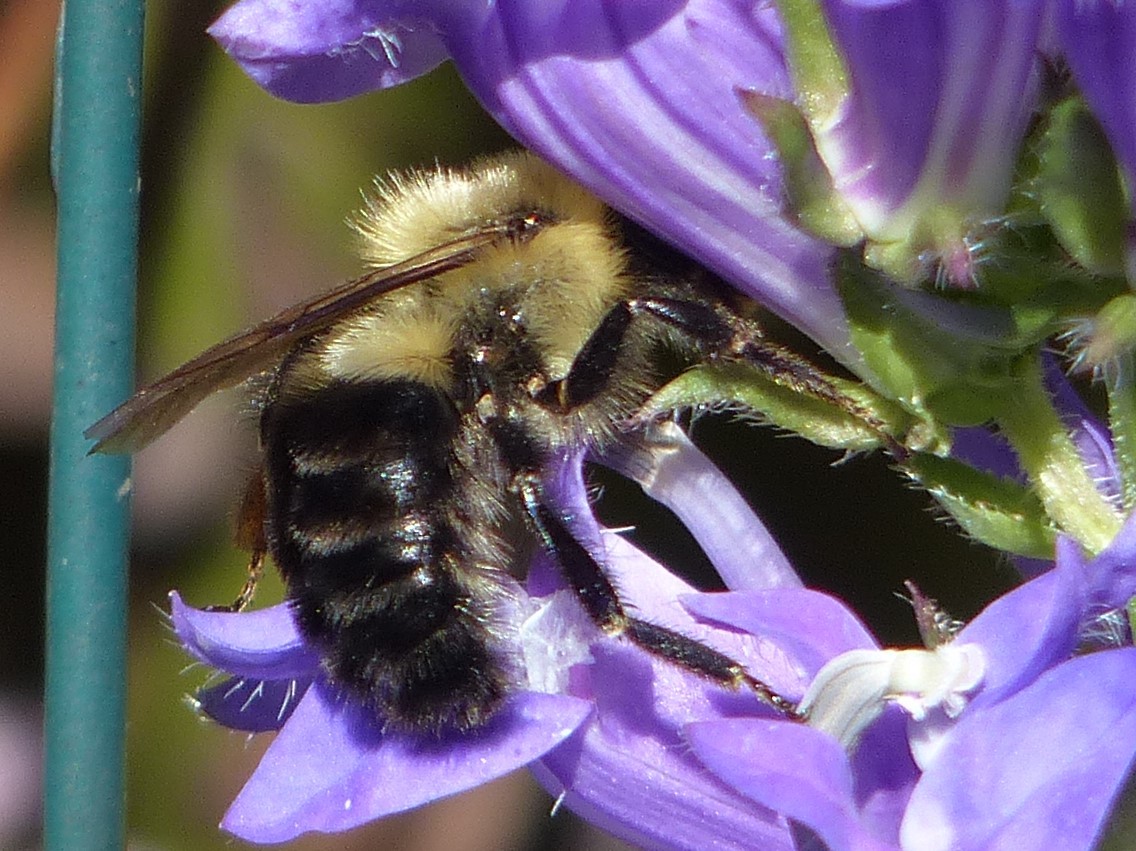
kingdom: Animalia
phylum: Arthropoda
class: Insecta
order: Hymenoptera
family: Apidae
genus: Bombus
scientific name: Bombus impatiens
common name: Common eastern bumble bee
